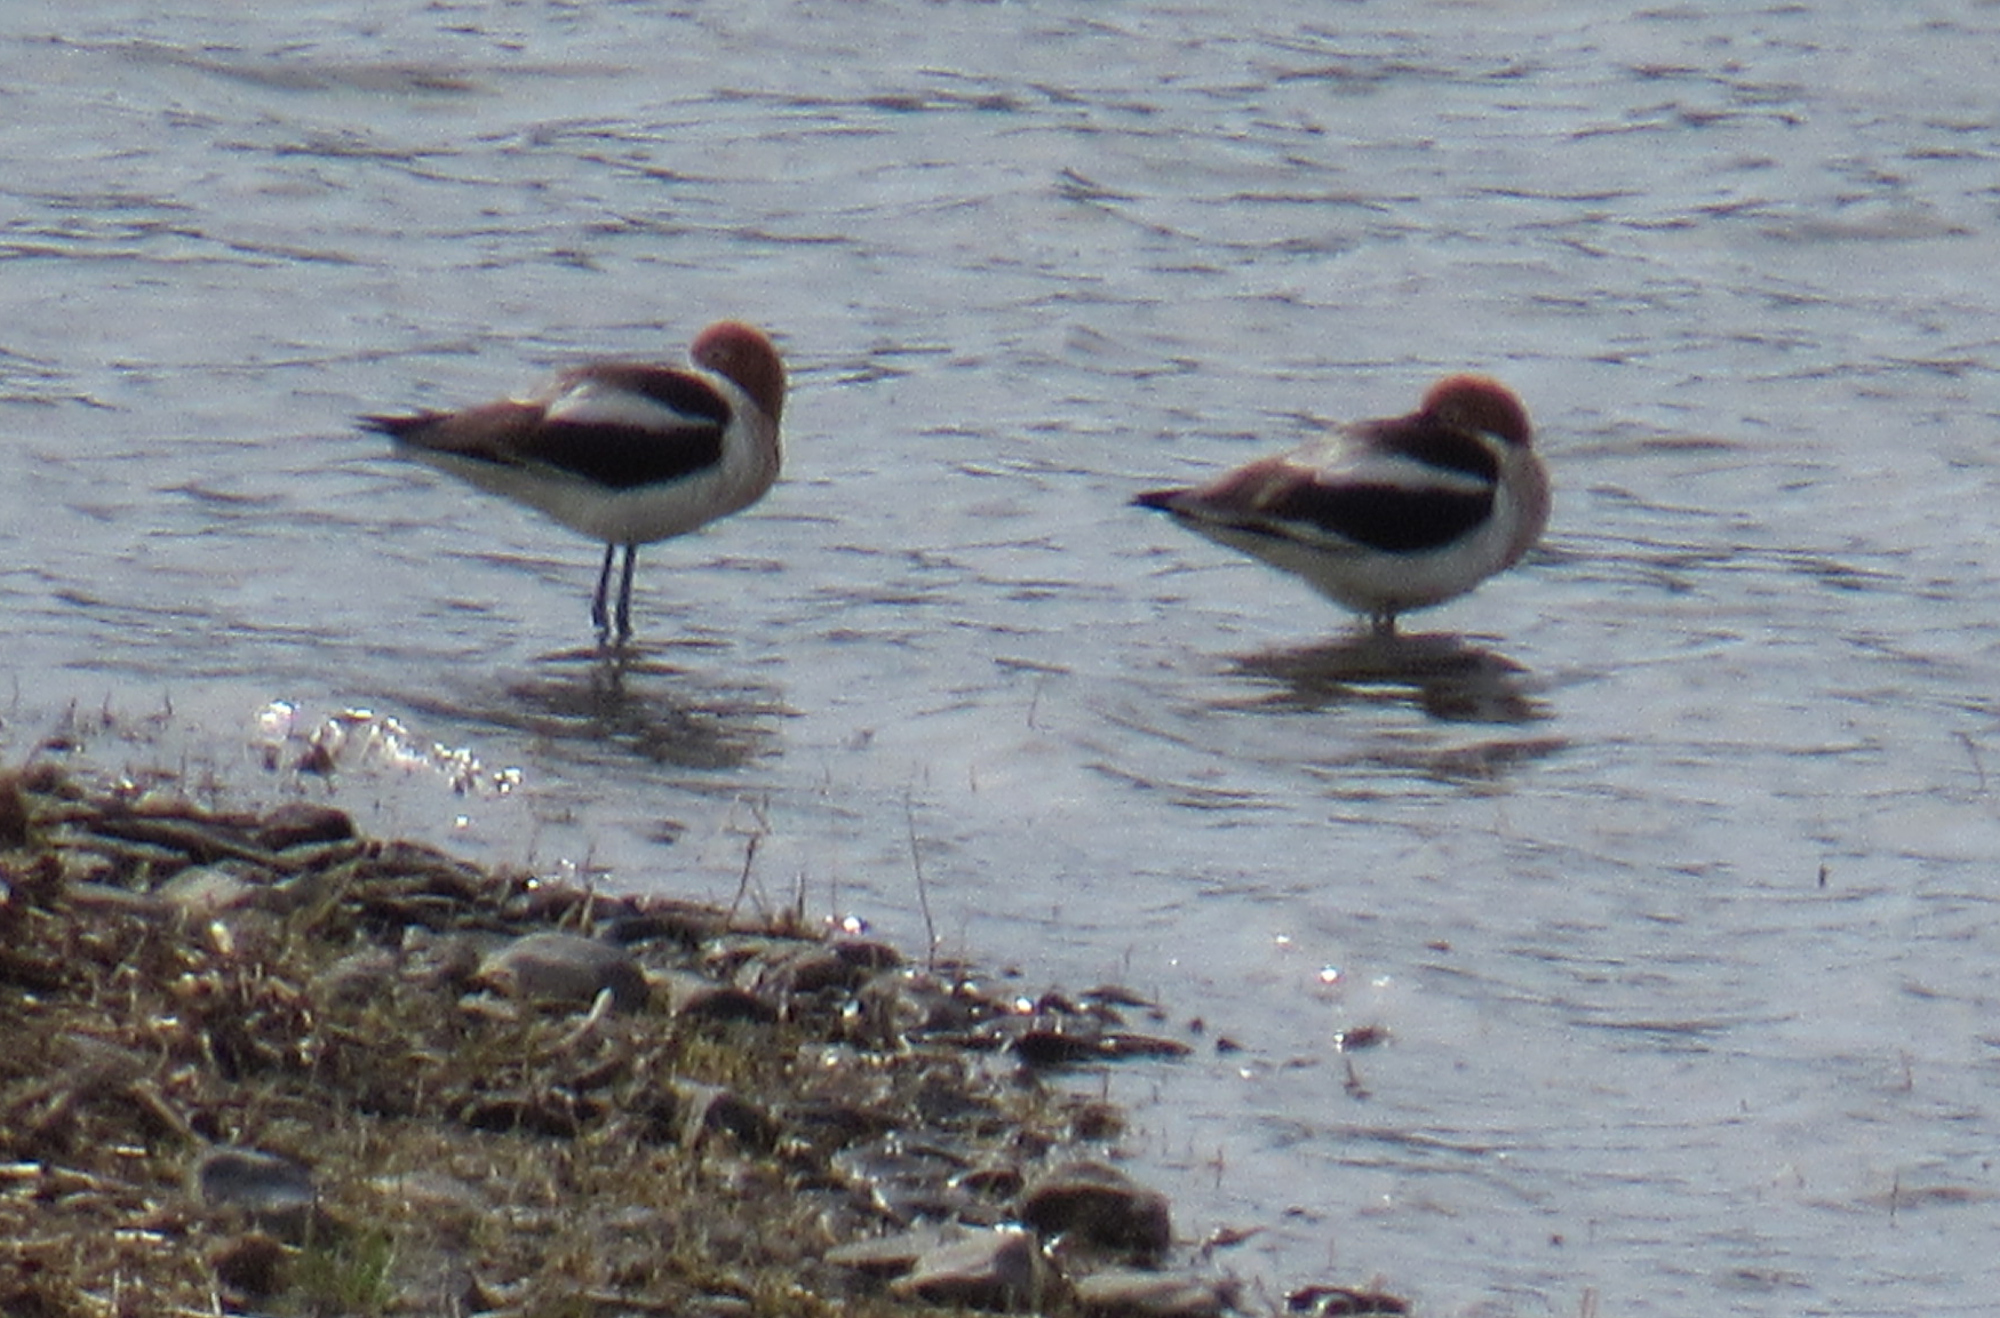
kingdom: Animalia
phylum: Chordata
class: Aves
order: Charadriiformes
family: Recurvirostridae
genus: Recurvirostra
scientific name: Recurvirostra americana
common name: American avocet
